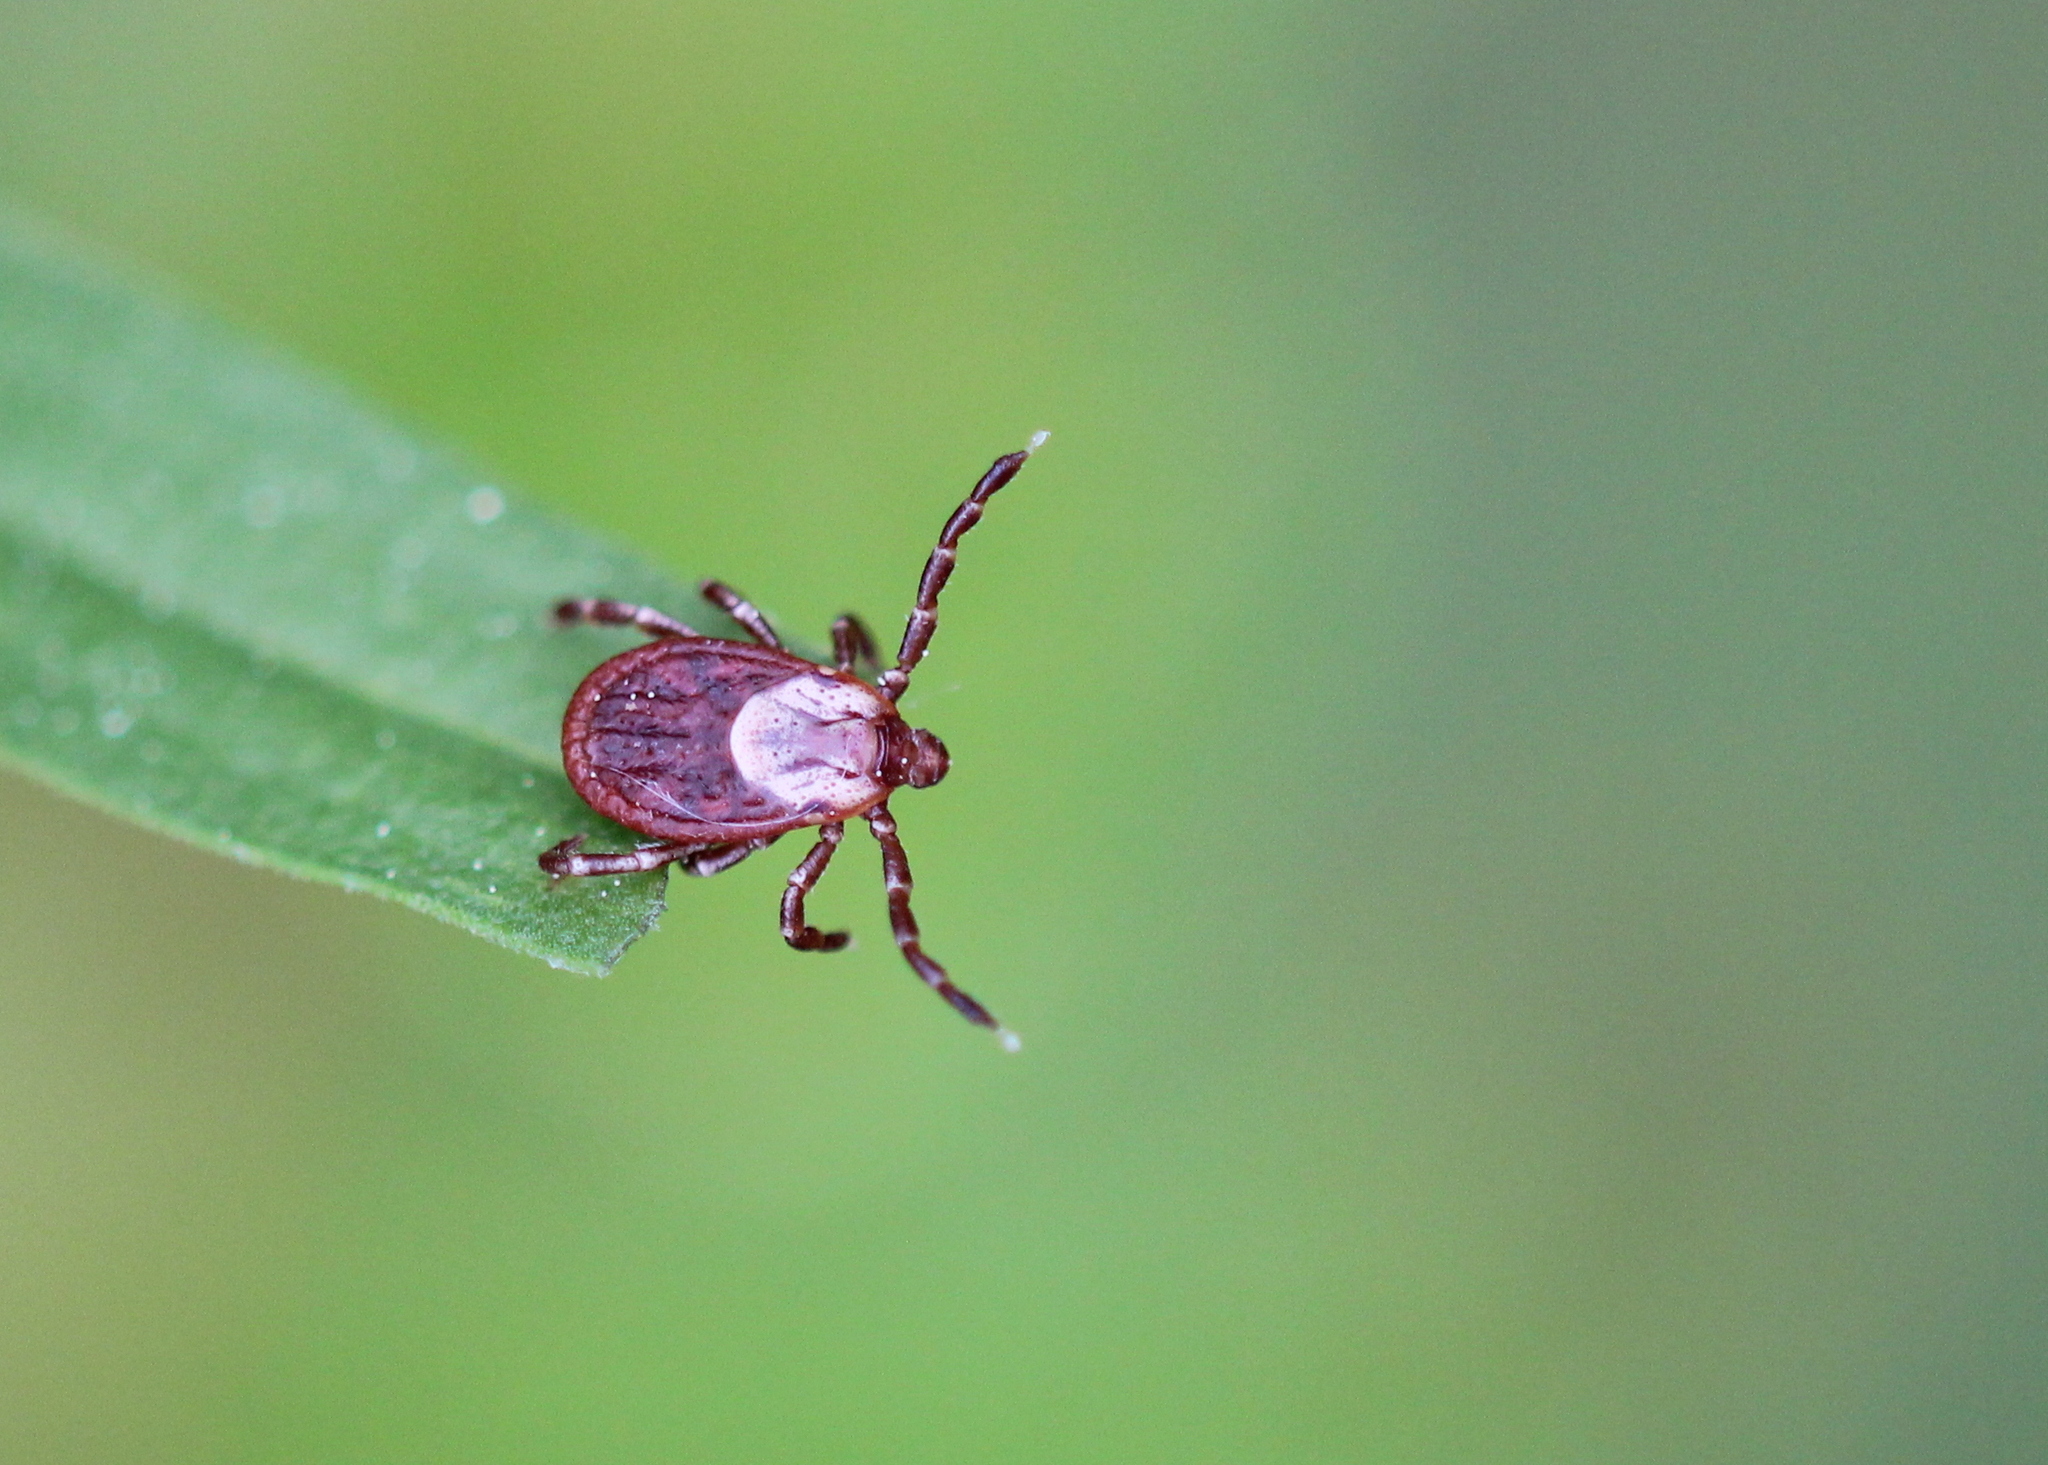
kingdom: Animalia
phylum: Arthropoda
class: Arachnida
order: Ixodida
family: Ixodidae
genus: Dermacentor
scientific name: Dermacentor variabilis
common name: American dog tick
